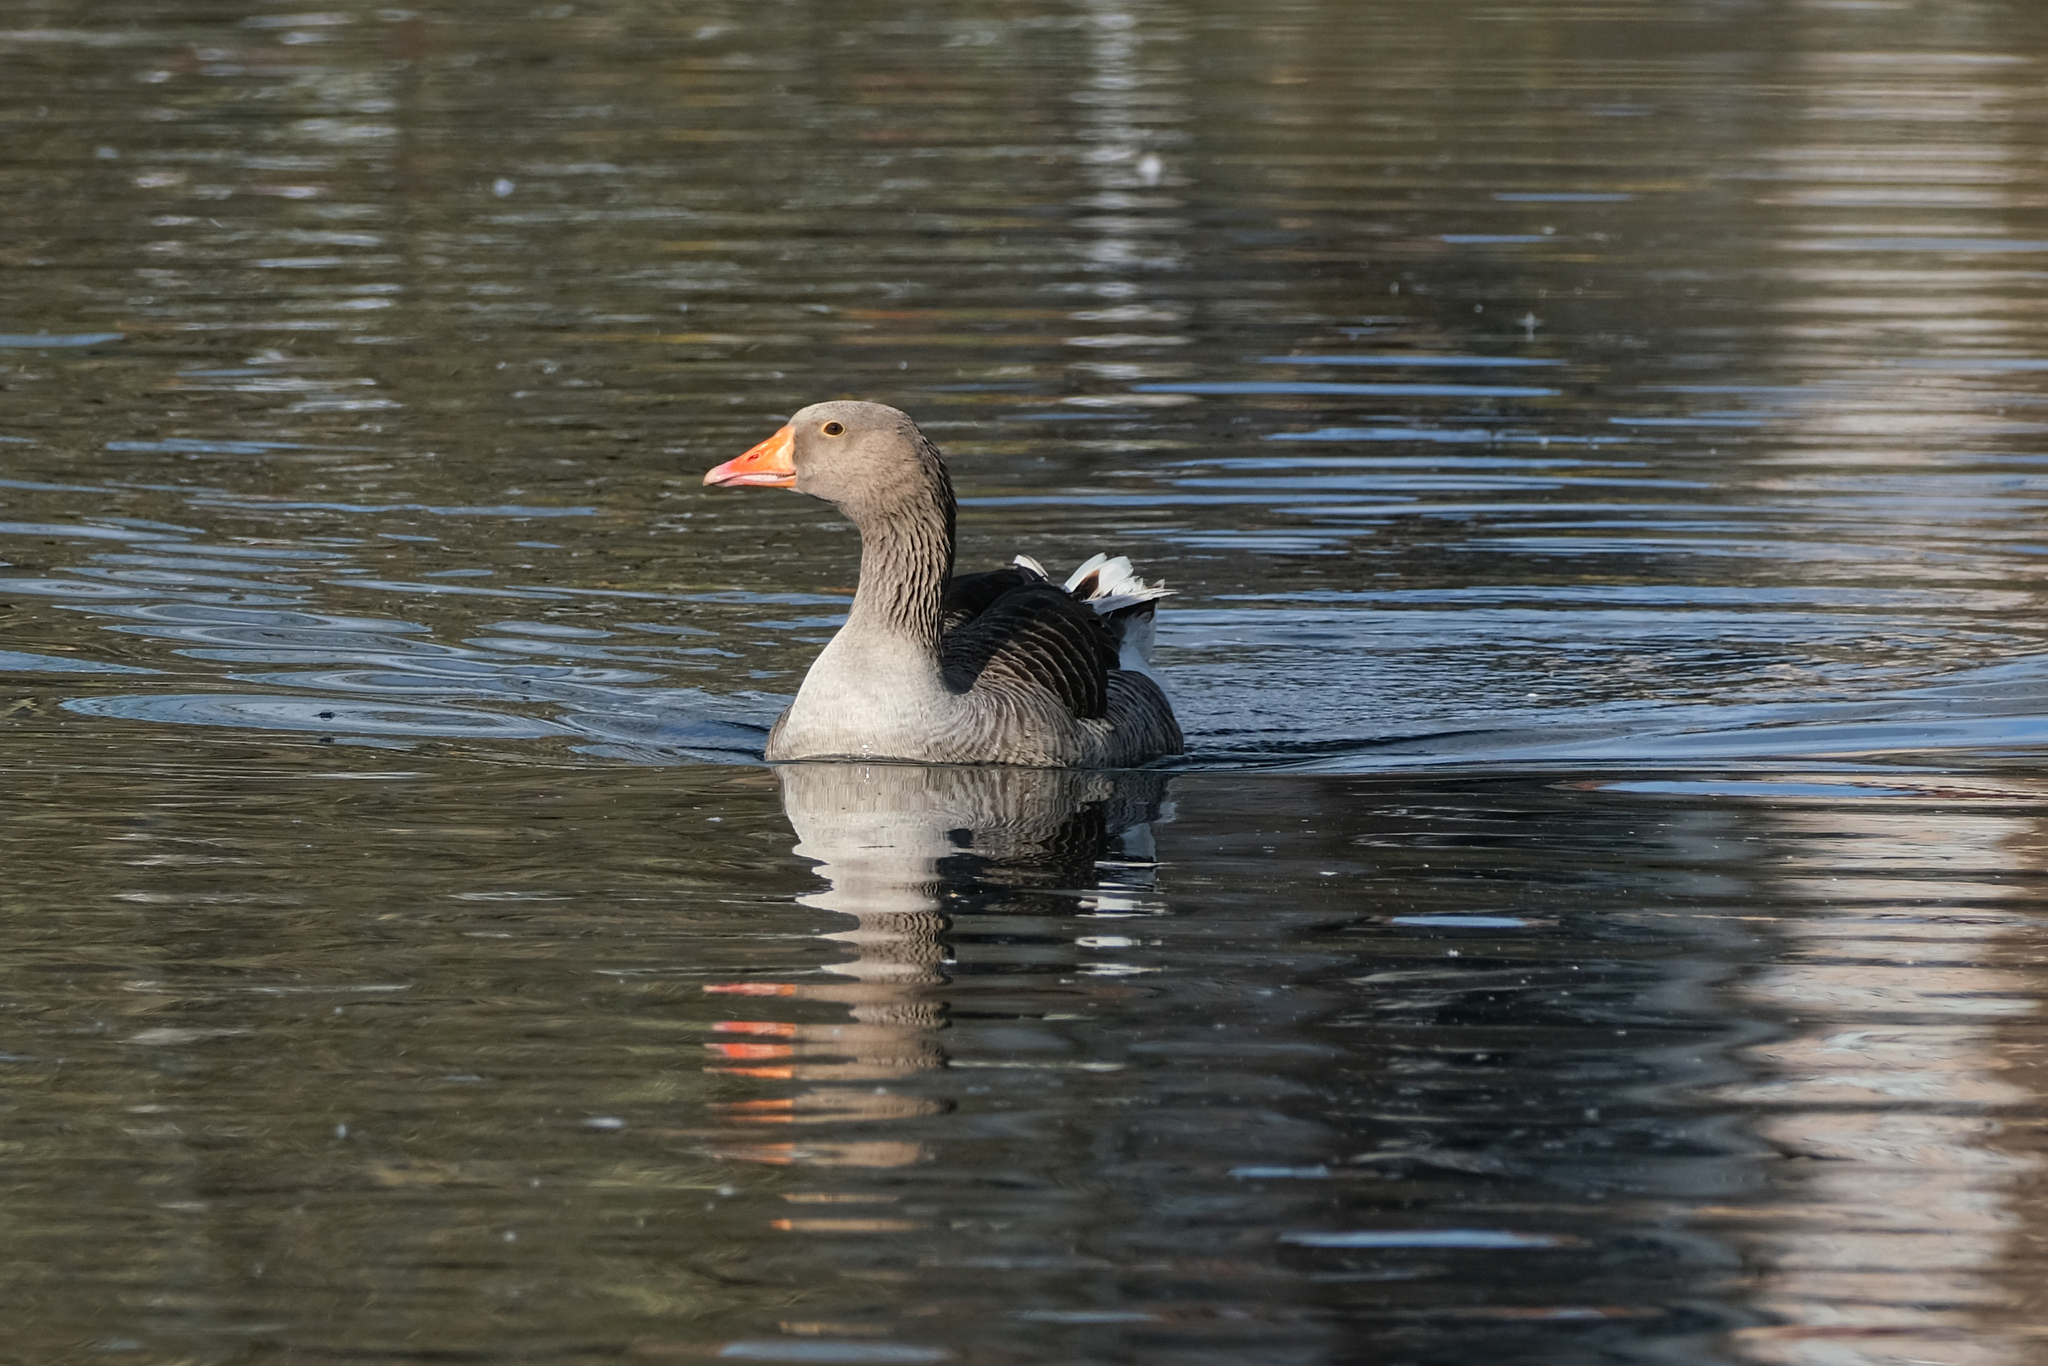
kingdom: Animalia
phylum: Chordata
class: Aves
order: Anseriformes
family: Anatidae
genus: Anser
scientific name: Anser anser
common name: Greylag goose
